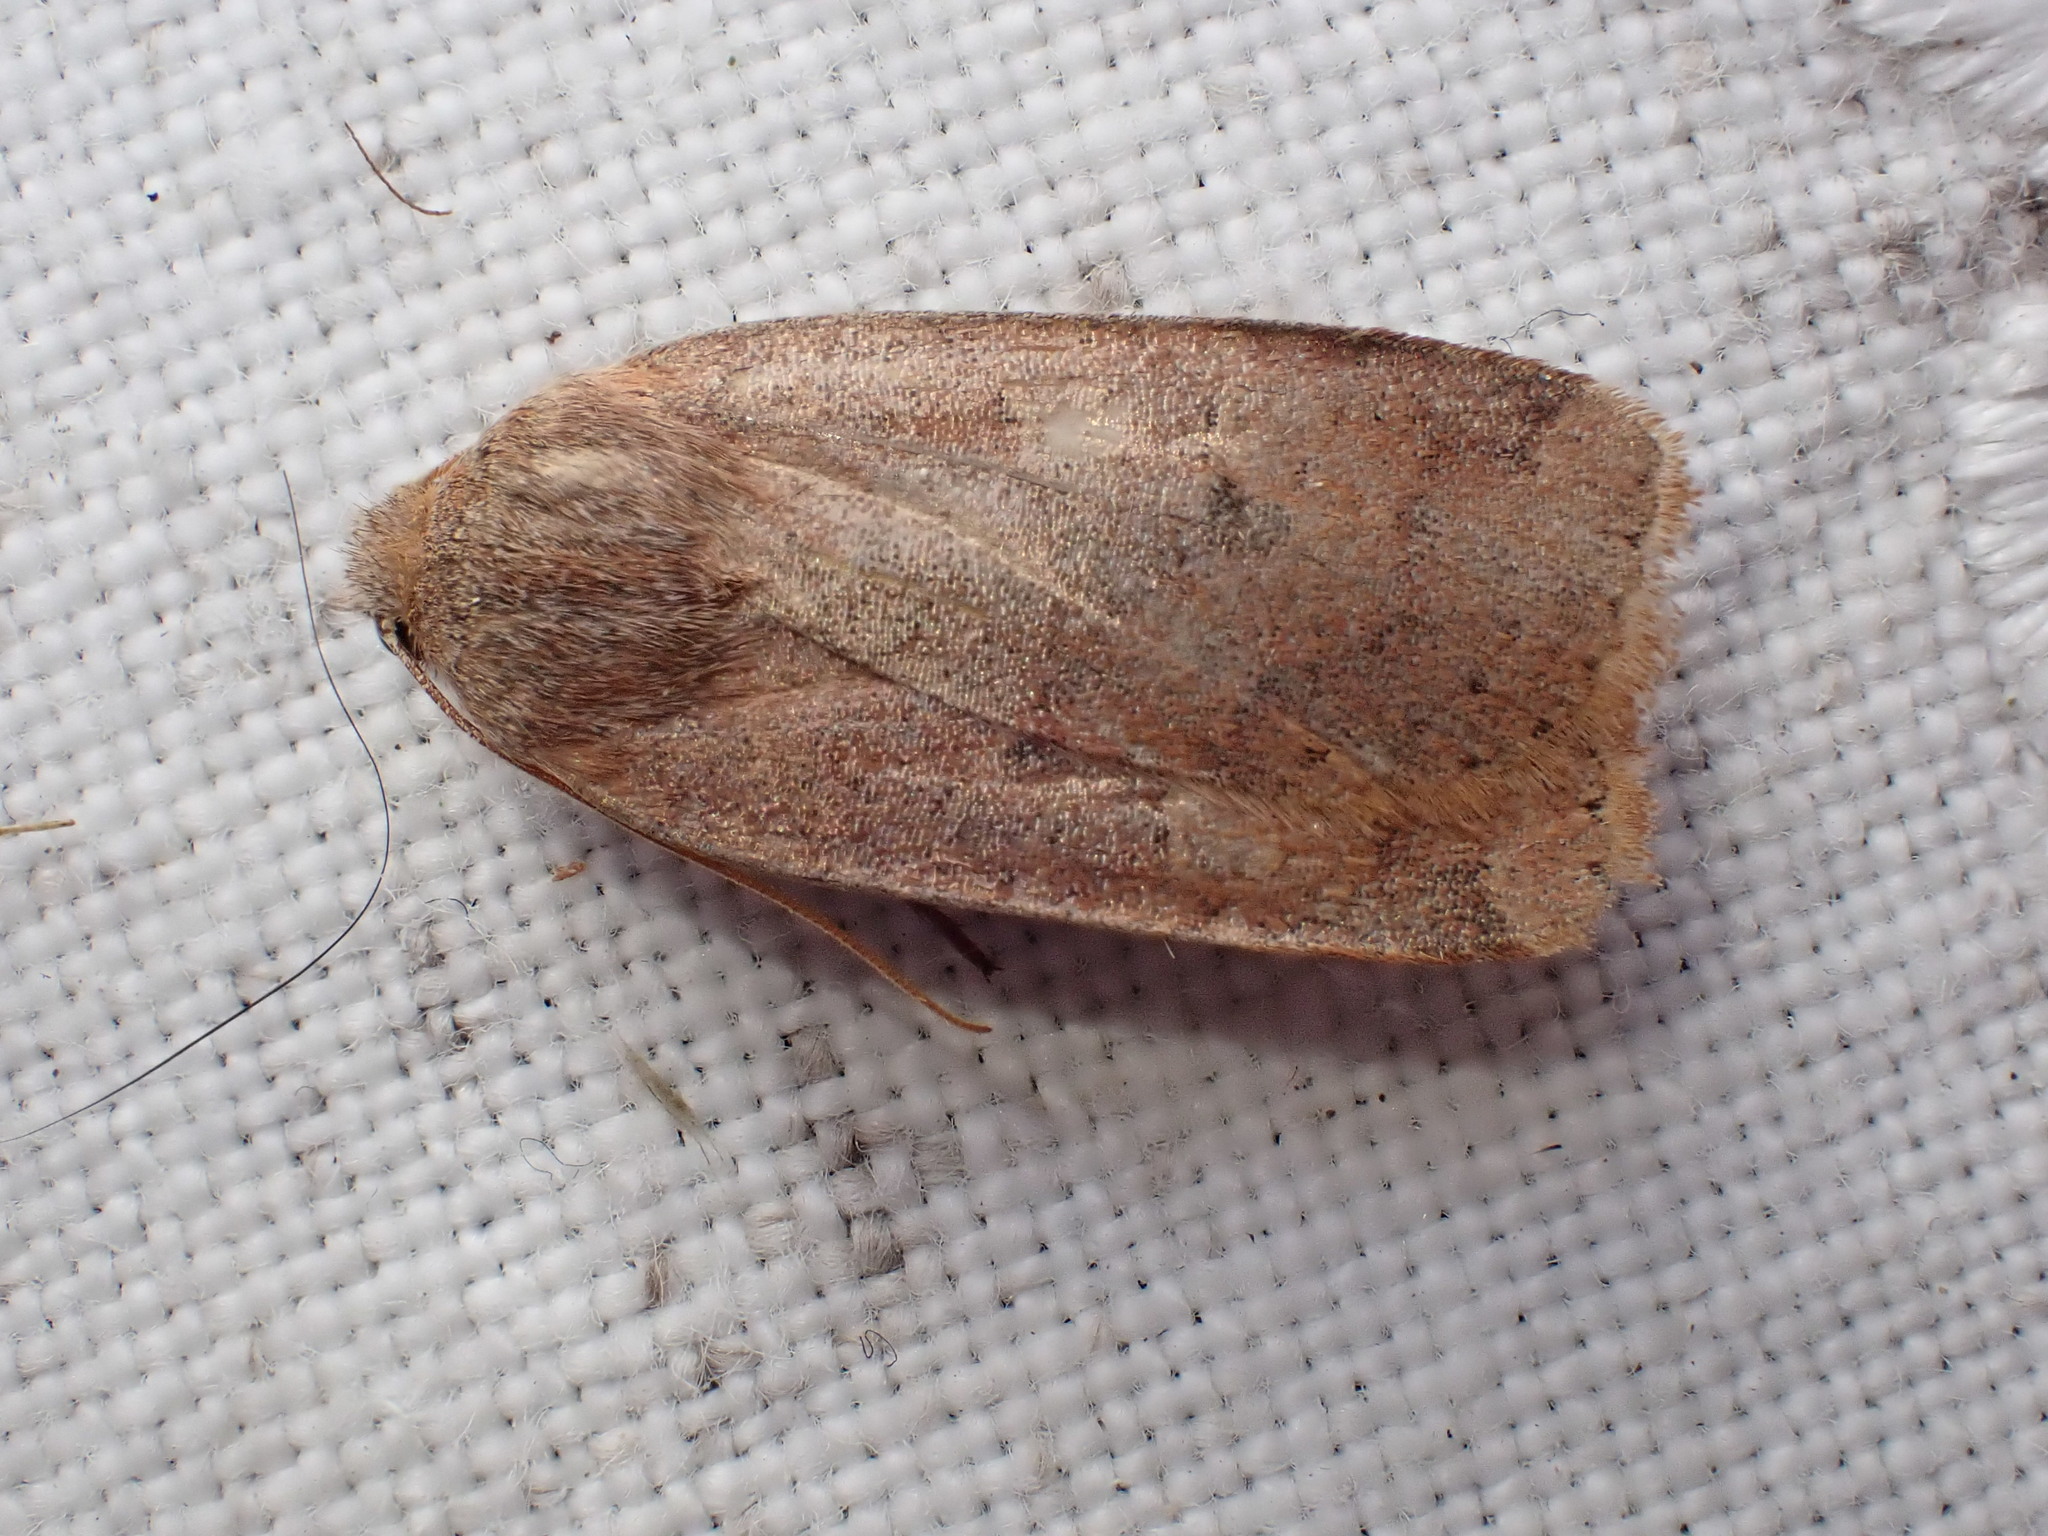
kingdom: Animalia
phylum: Arthropoda
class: Insecta
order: Lepidoptera
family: Noctuidae
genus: Conistra
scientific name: Conistra vaccinii
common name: Chestnut
